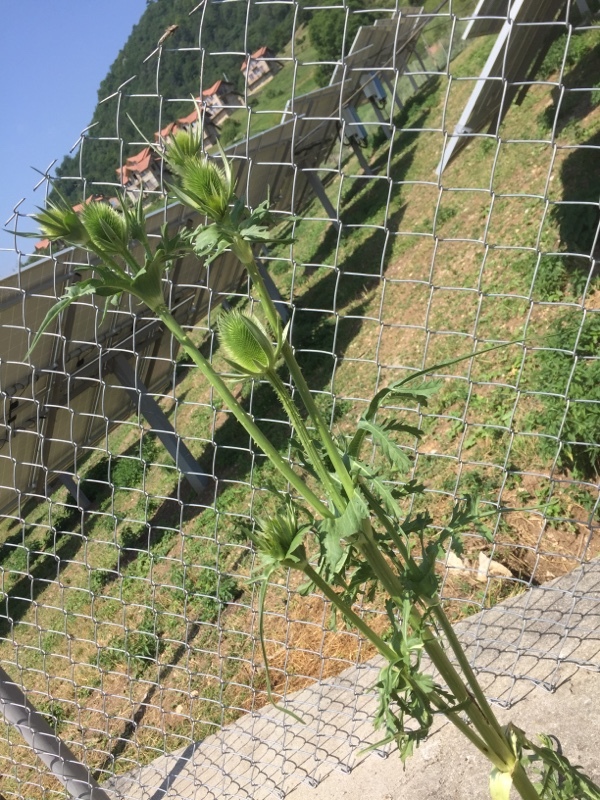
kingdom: Plantae
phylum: Tracheophyta
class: Magnoliopsida
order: Dipsacales
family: Caprifoliaceae
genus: Dipsacus
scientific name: Dipsacus laciniatus
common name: Cut-leaved teasel
